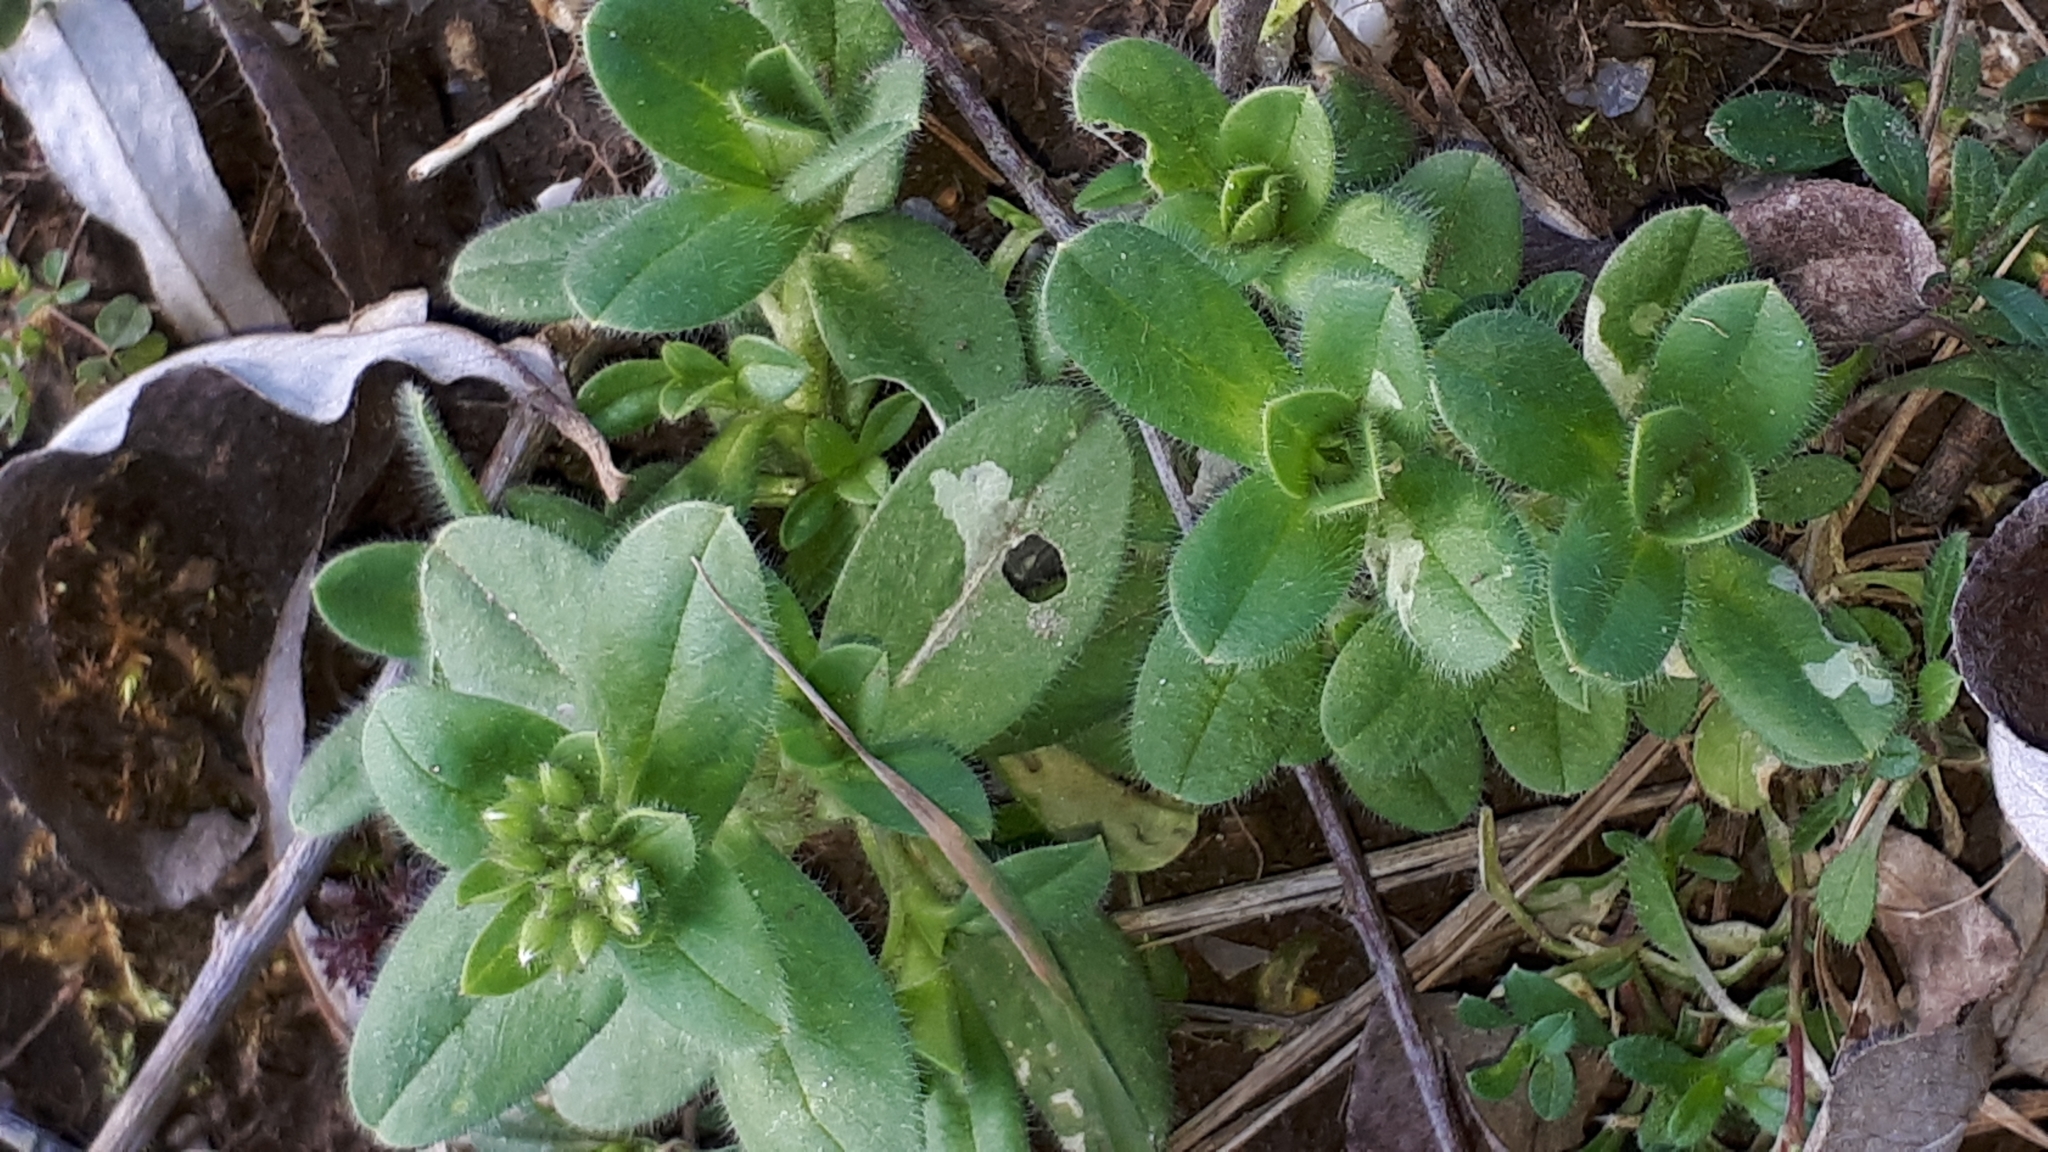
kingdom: Plantae
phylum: Tracheophyta
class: Magnoliopsida
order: Caryophyllales
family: Caryophyllaceae
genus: Cerastium
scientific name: Cerastium glomeratum
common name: Sticky chickweed
